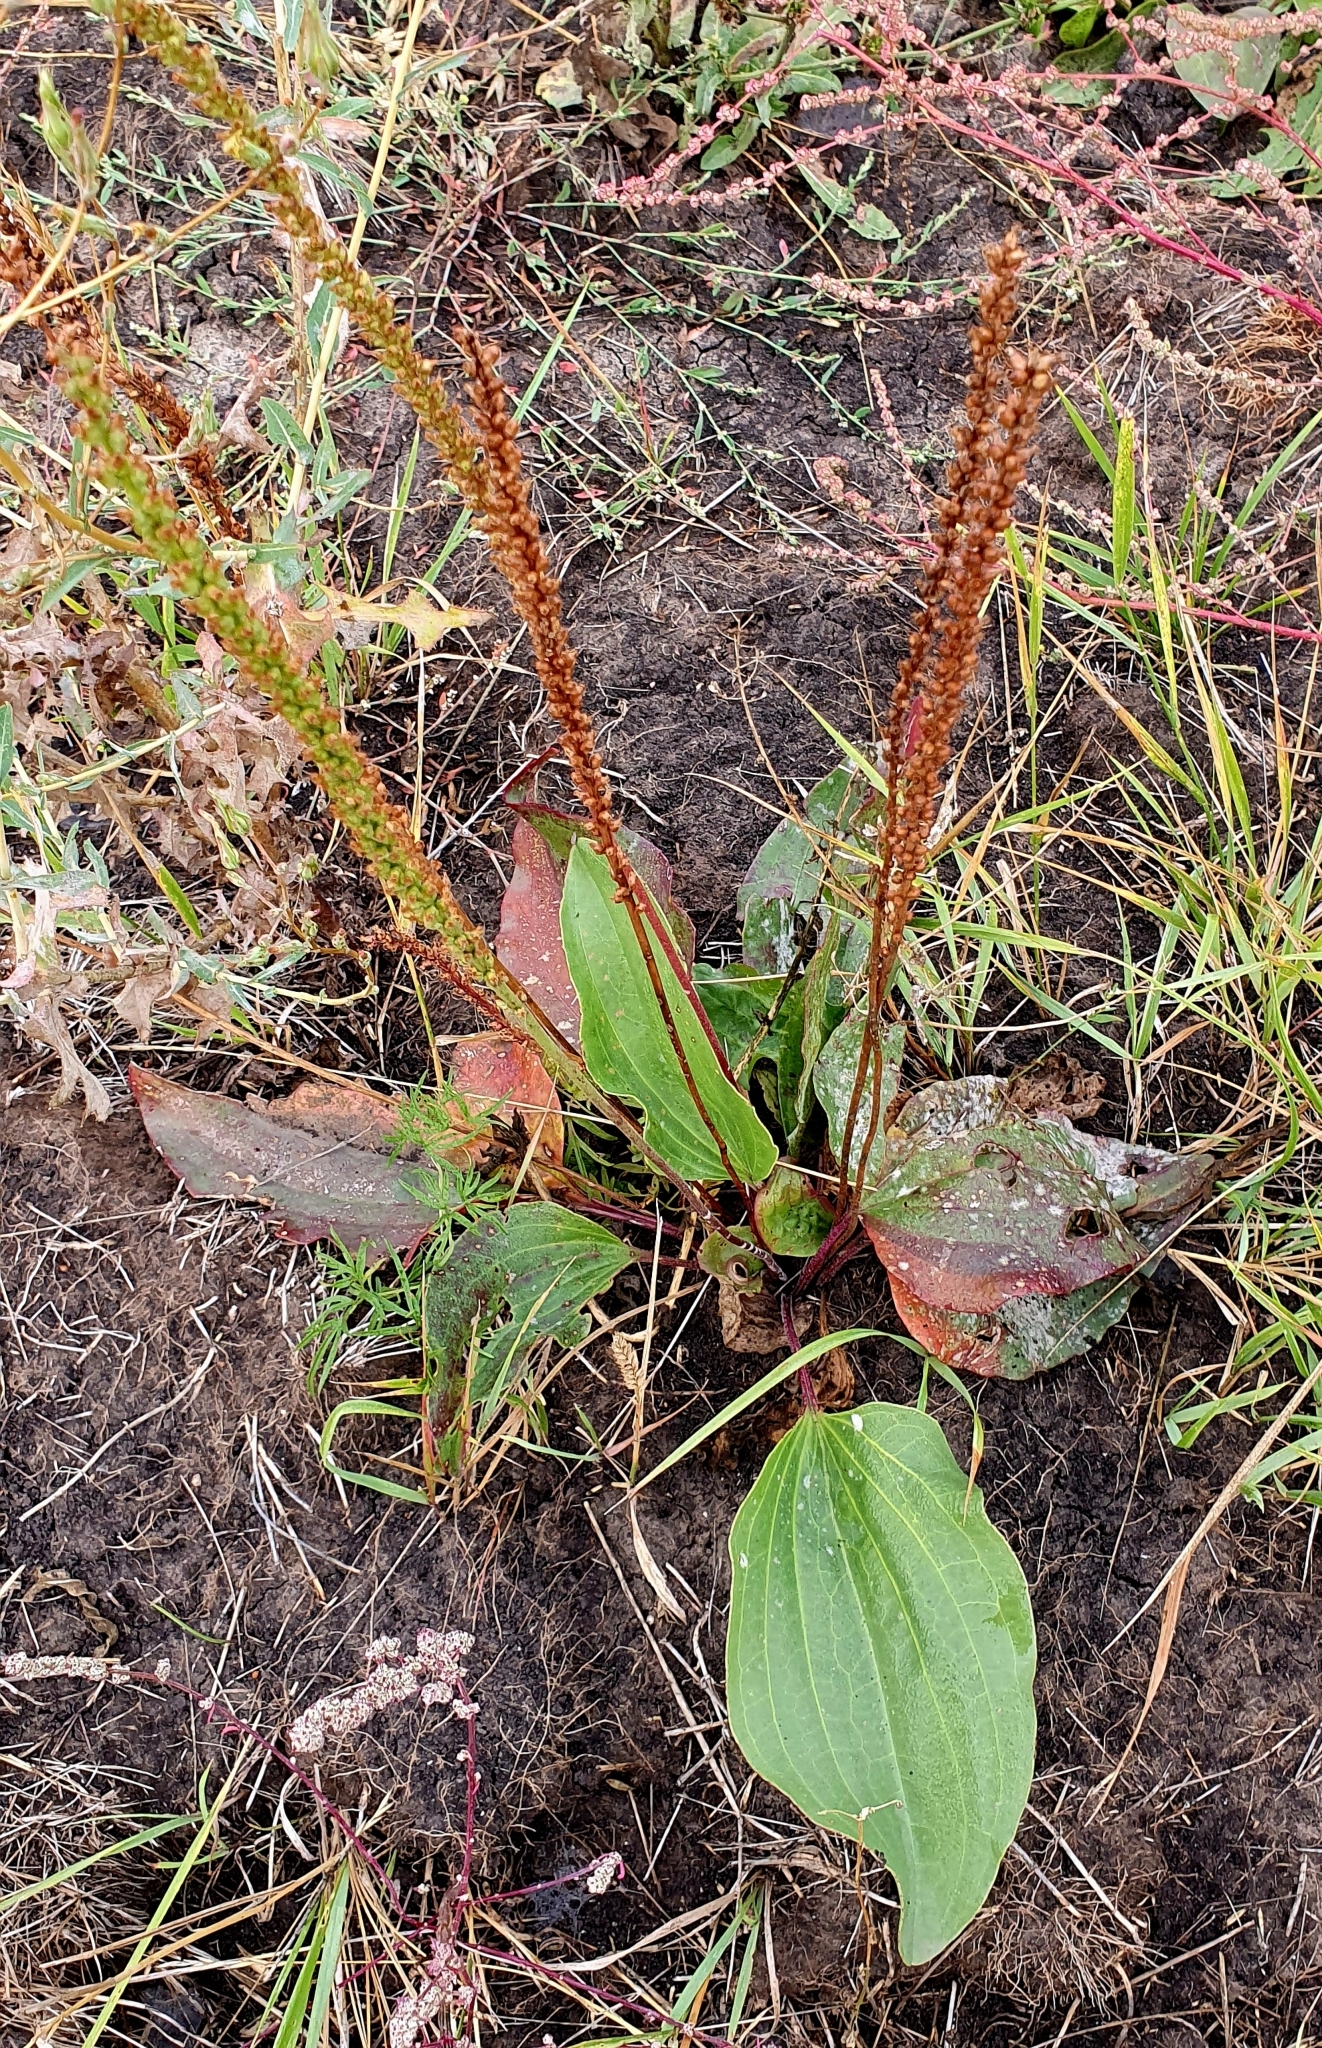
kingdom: Plantae
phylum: Tracheophyta
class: Magnoliopsida
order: Lamiales
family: Plantaginaceae
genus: Plantago
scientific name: Plantago cornuti
